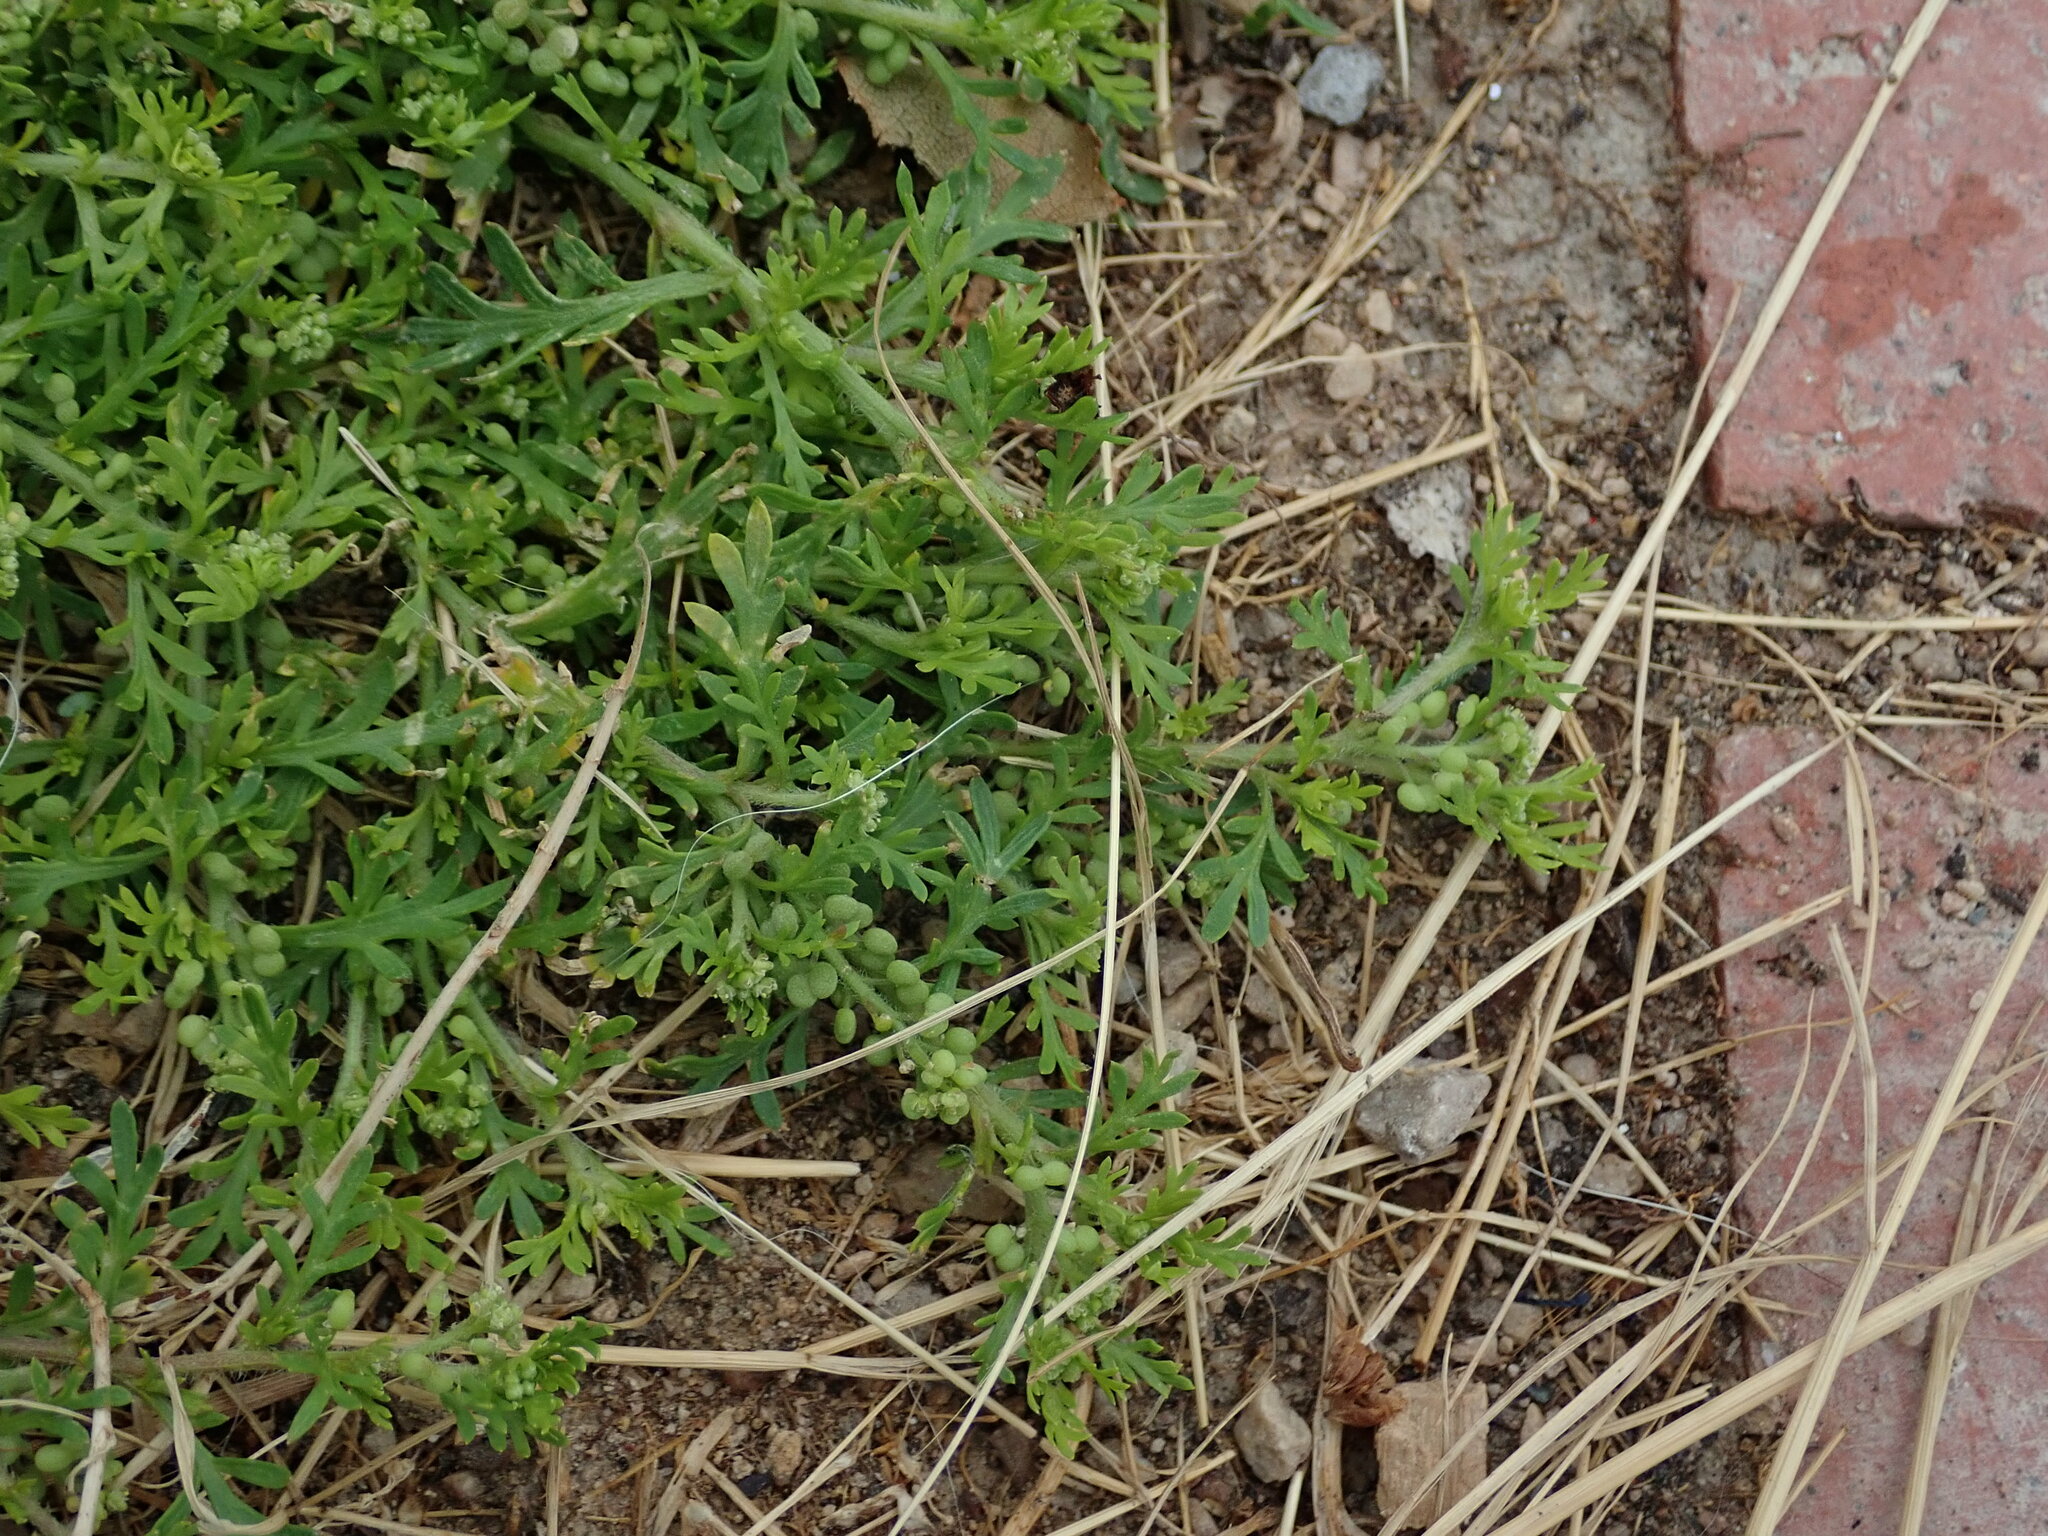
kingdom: Plantae
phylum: Tracheophyta
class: Magnoliopsida
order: Brassicales
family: Brassicaceae
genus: Lepidium
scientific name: Lepidium didymum
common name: Lesser swinecress
